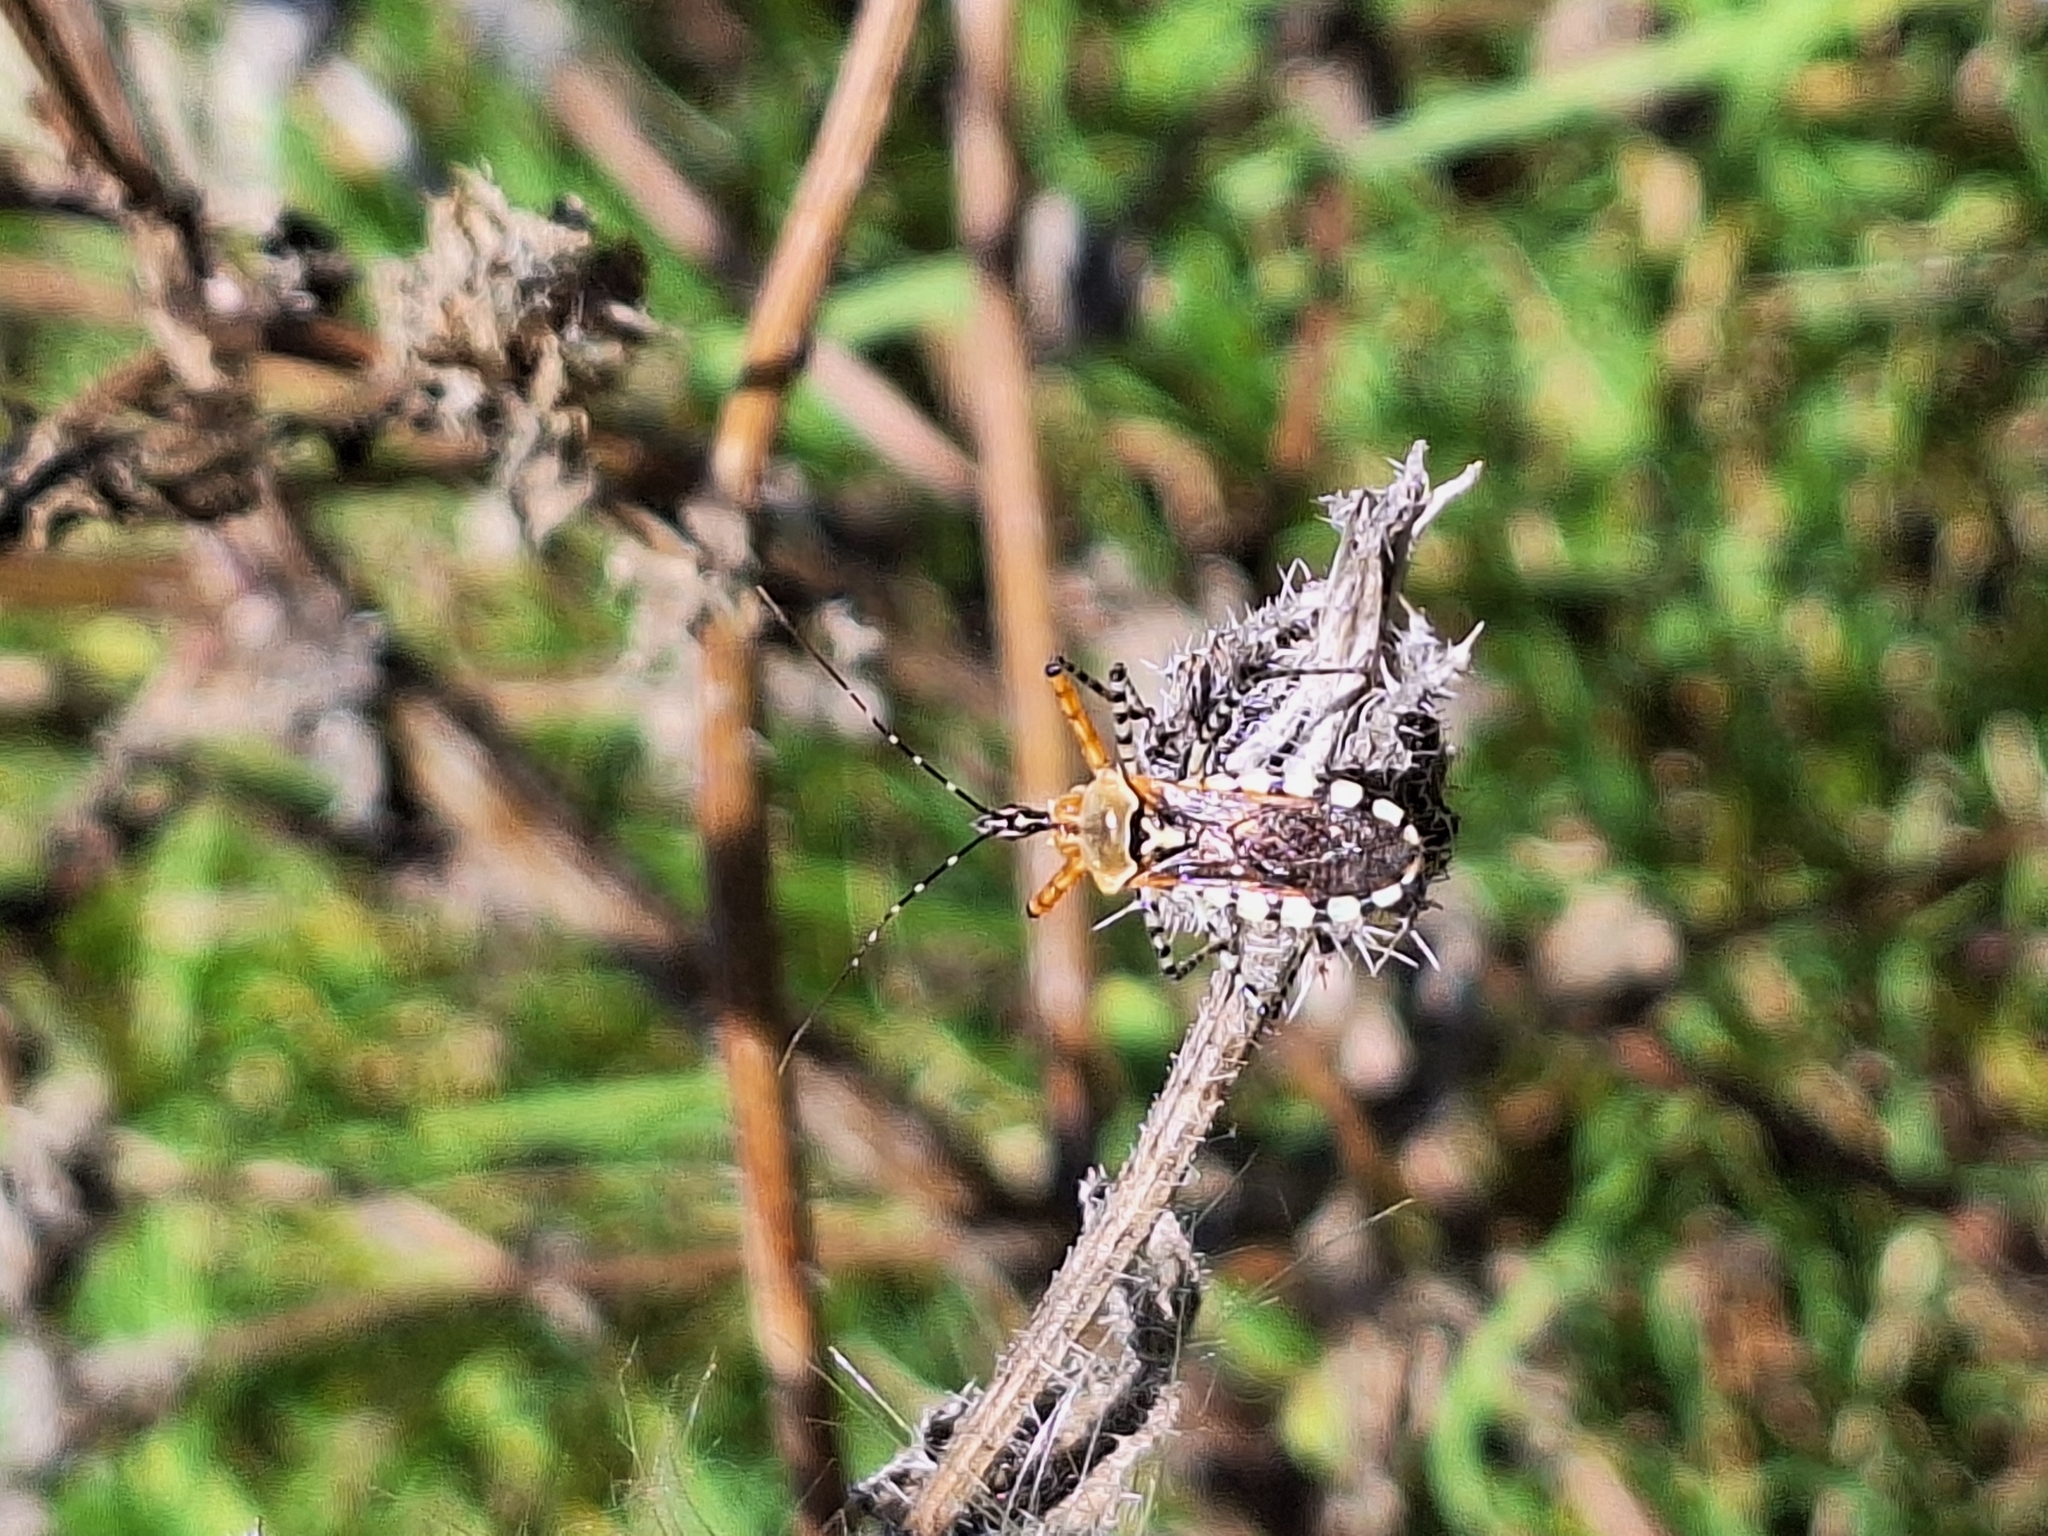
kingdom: Animalia
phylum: Arthropoda
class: Insecta
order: Hemiptera
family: Reduviidae
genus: Cosmoclopius
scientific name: Cosmoclopius nigroannulatus
